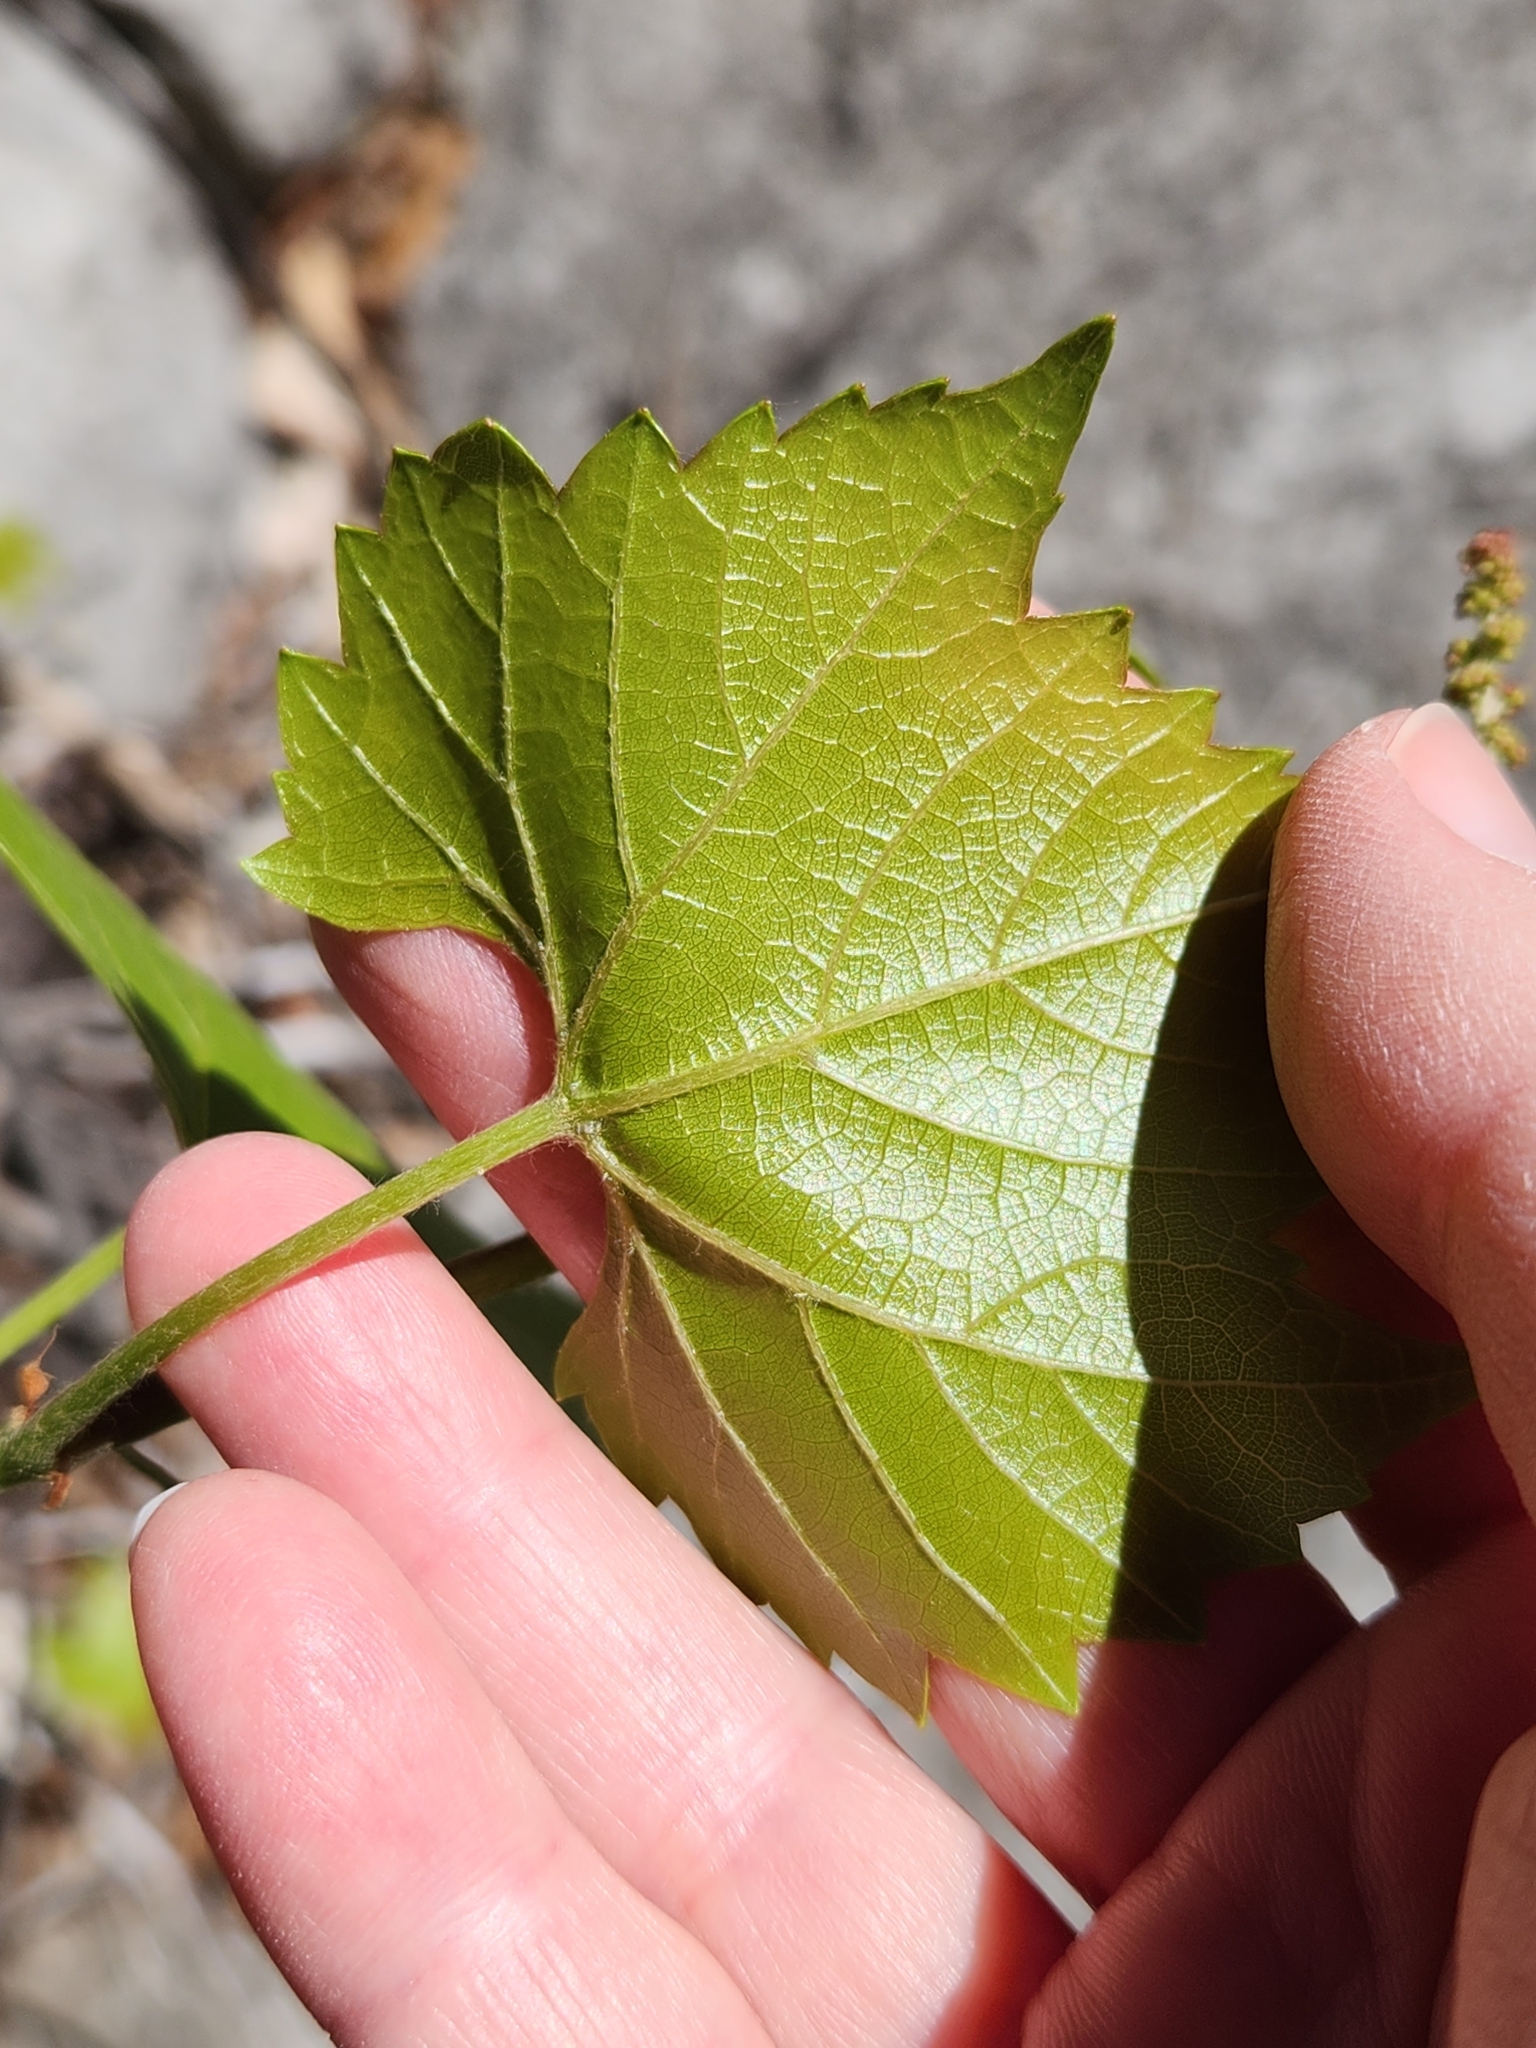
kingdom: Plantae
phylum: Tracheophyta
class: Magnoliopsida
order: Vitales
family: Vitaceae
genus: Vitis
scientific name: Vitis monticola
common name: Mountain grape
